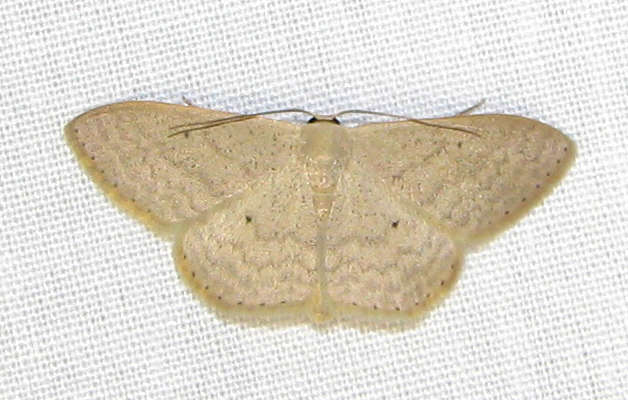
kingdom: Animalia
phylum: Arthropoda
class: Insecta
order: Lepidoptera
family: Geometridae
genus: Scopula
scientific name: Scopula optivata
